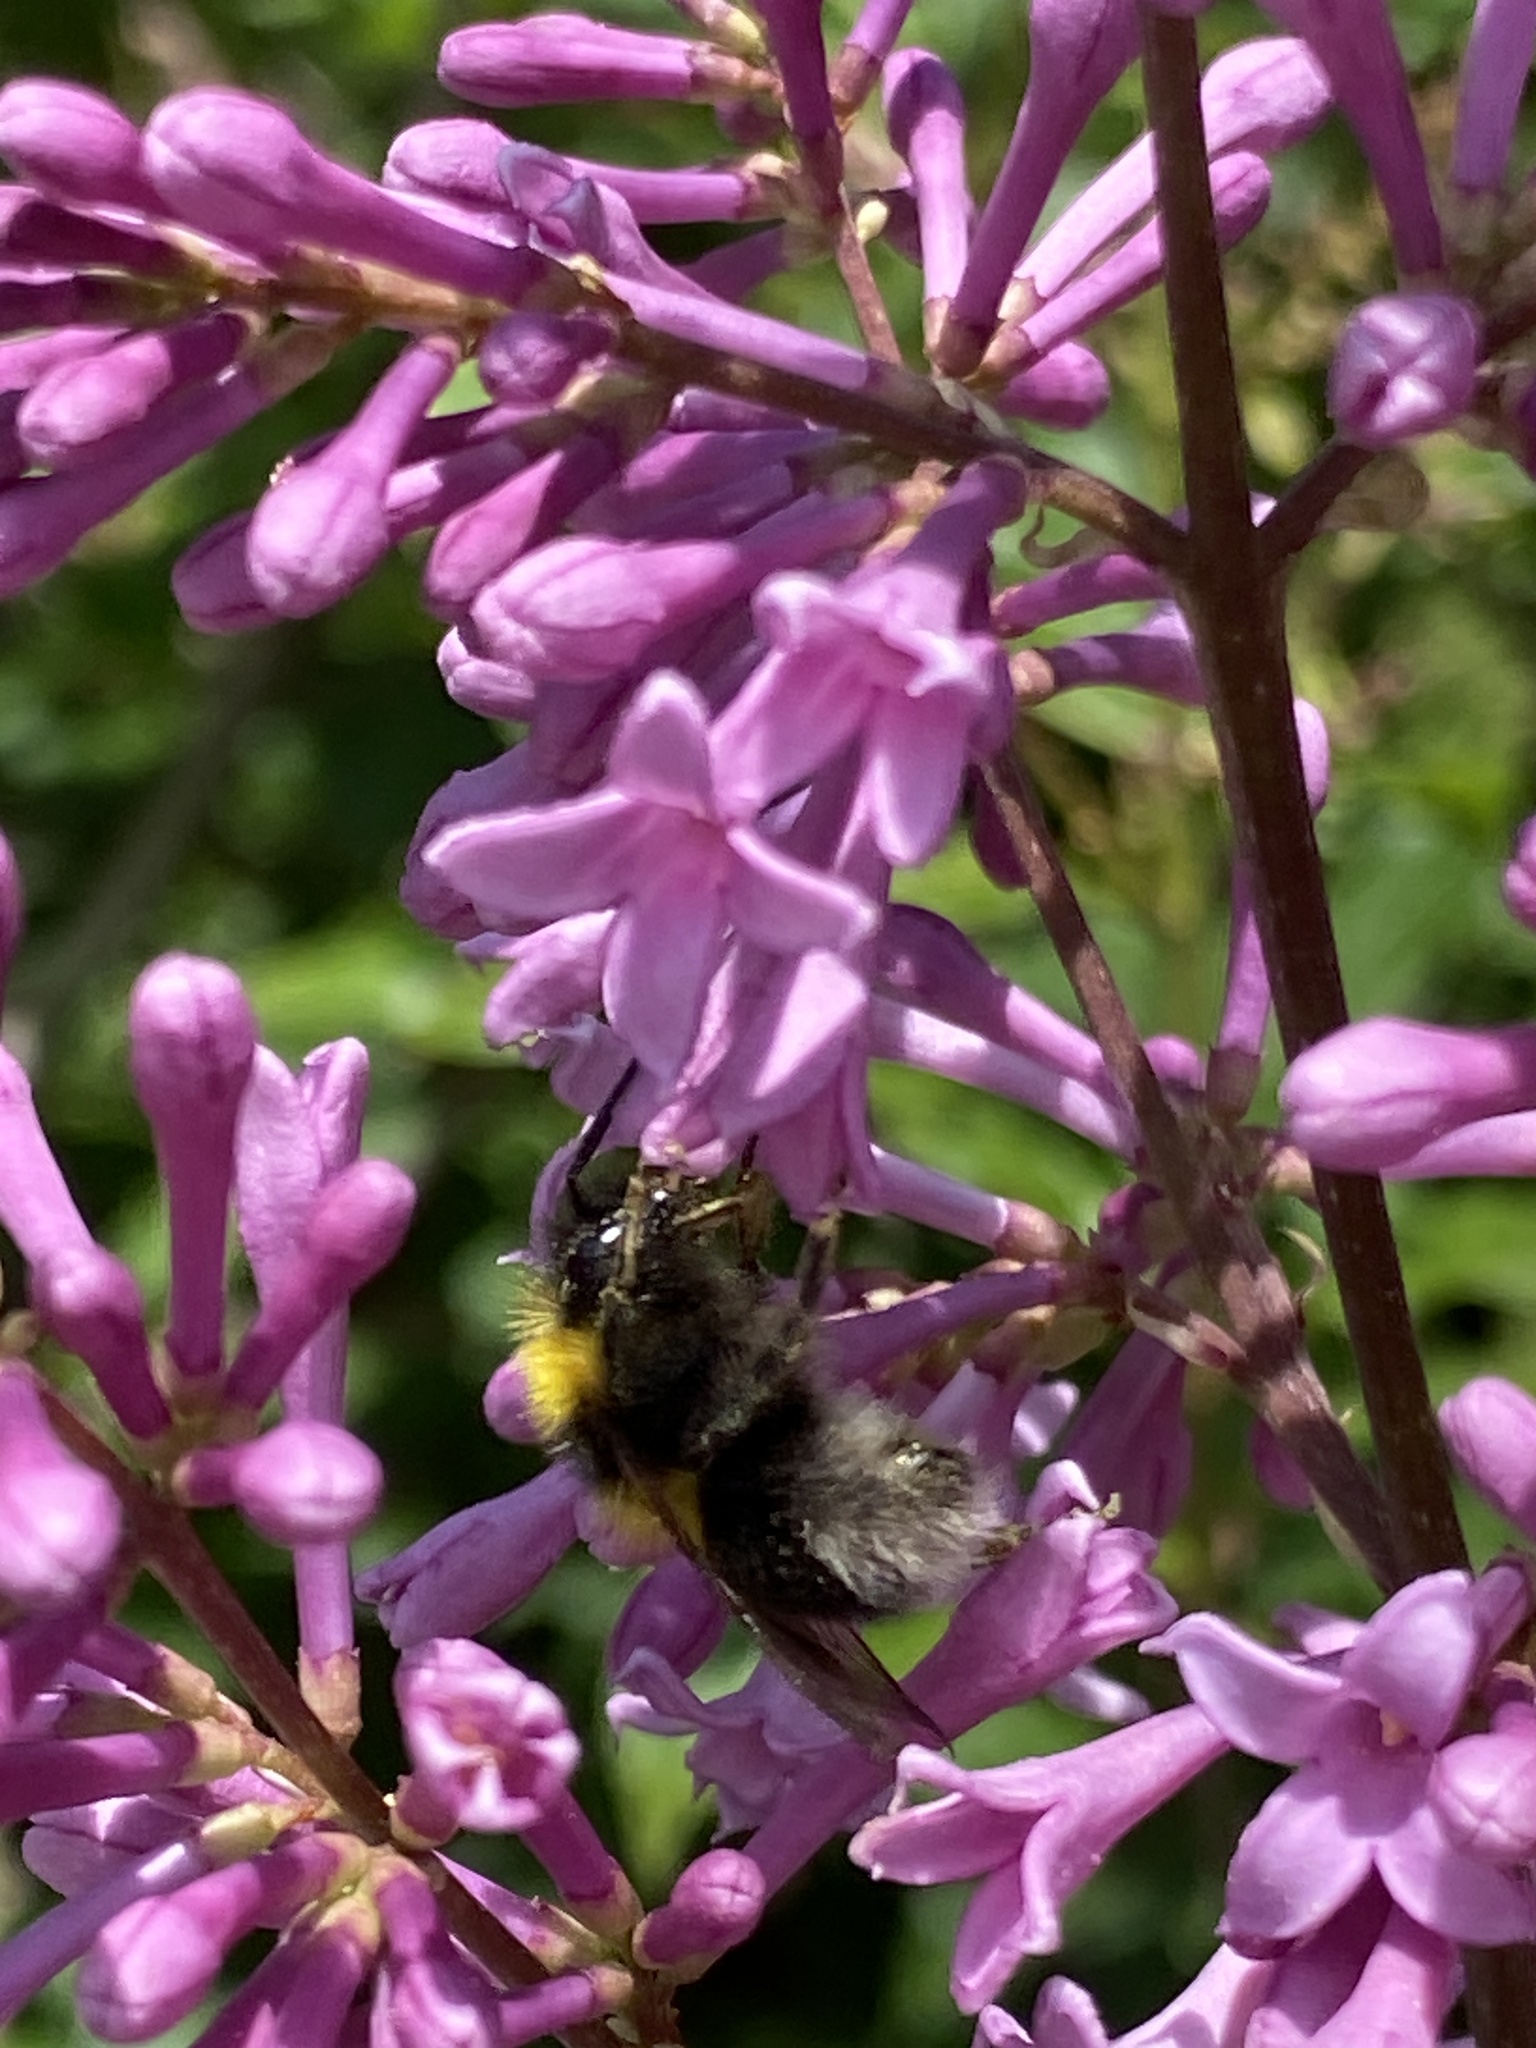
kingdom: Animalia
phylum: Arthropoda
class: Insecta
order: Hymenoptera
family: Apidae
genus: Bombus
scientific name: Bombus hortorum
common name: Garden bumblebee
